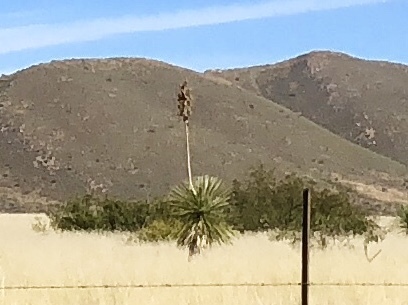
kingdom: Plantae
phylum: Tracheophyta
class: Liliopsida
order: Asparagales
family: Asparagaceae
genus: Yucca
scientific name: Yucca elata
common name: Palmella
